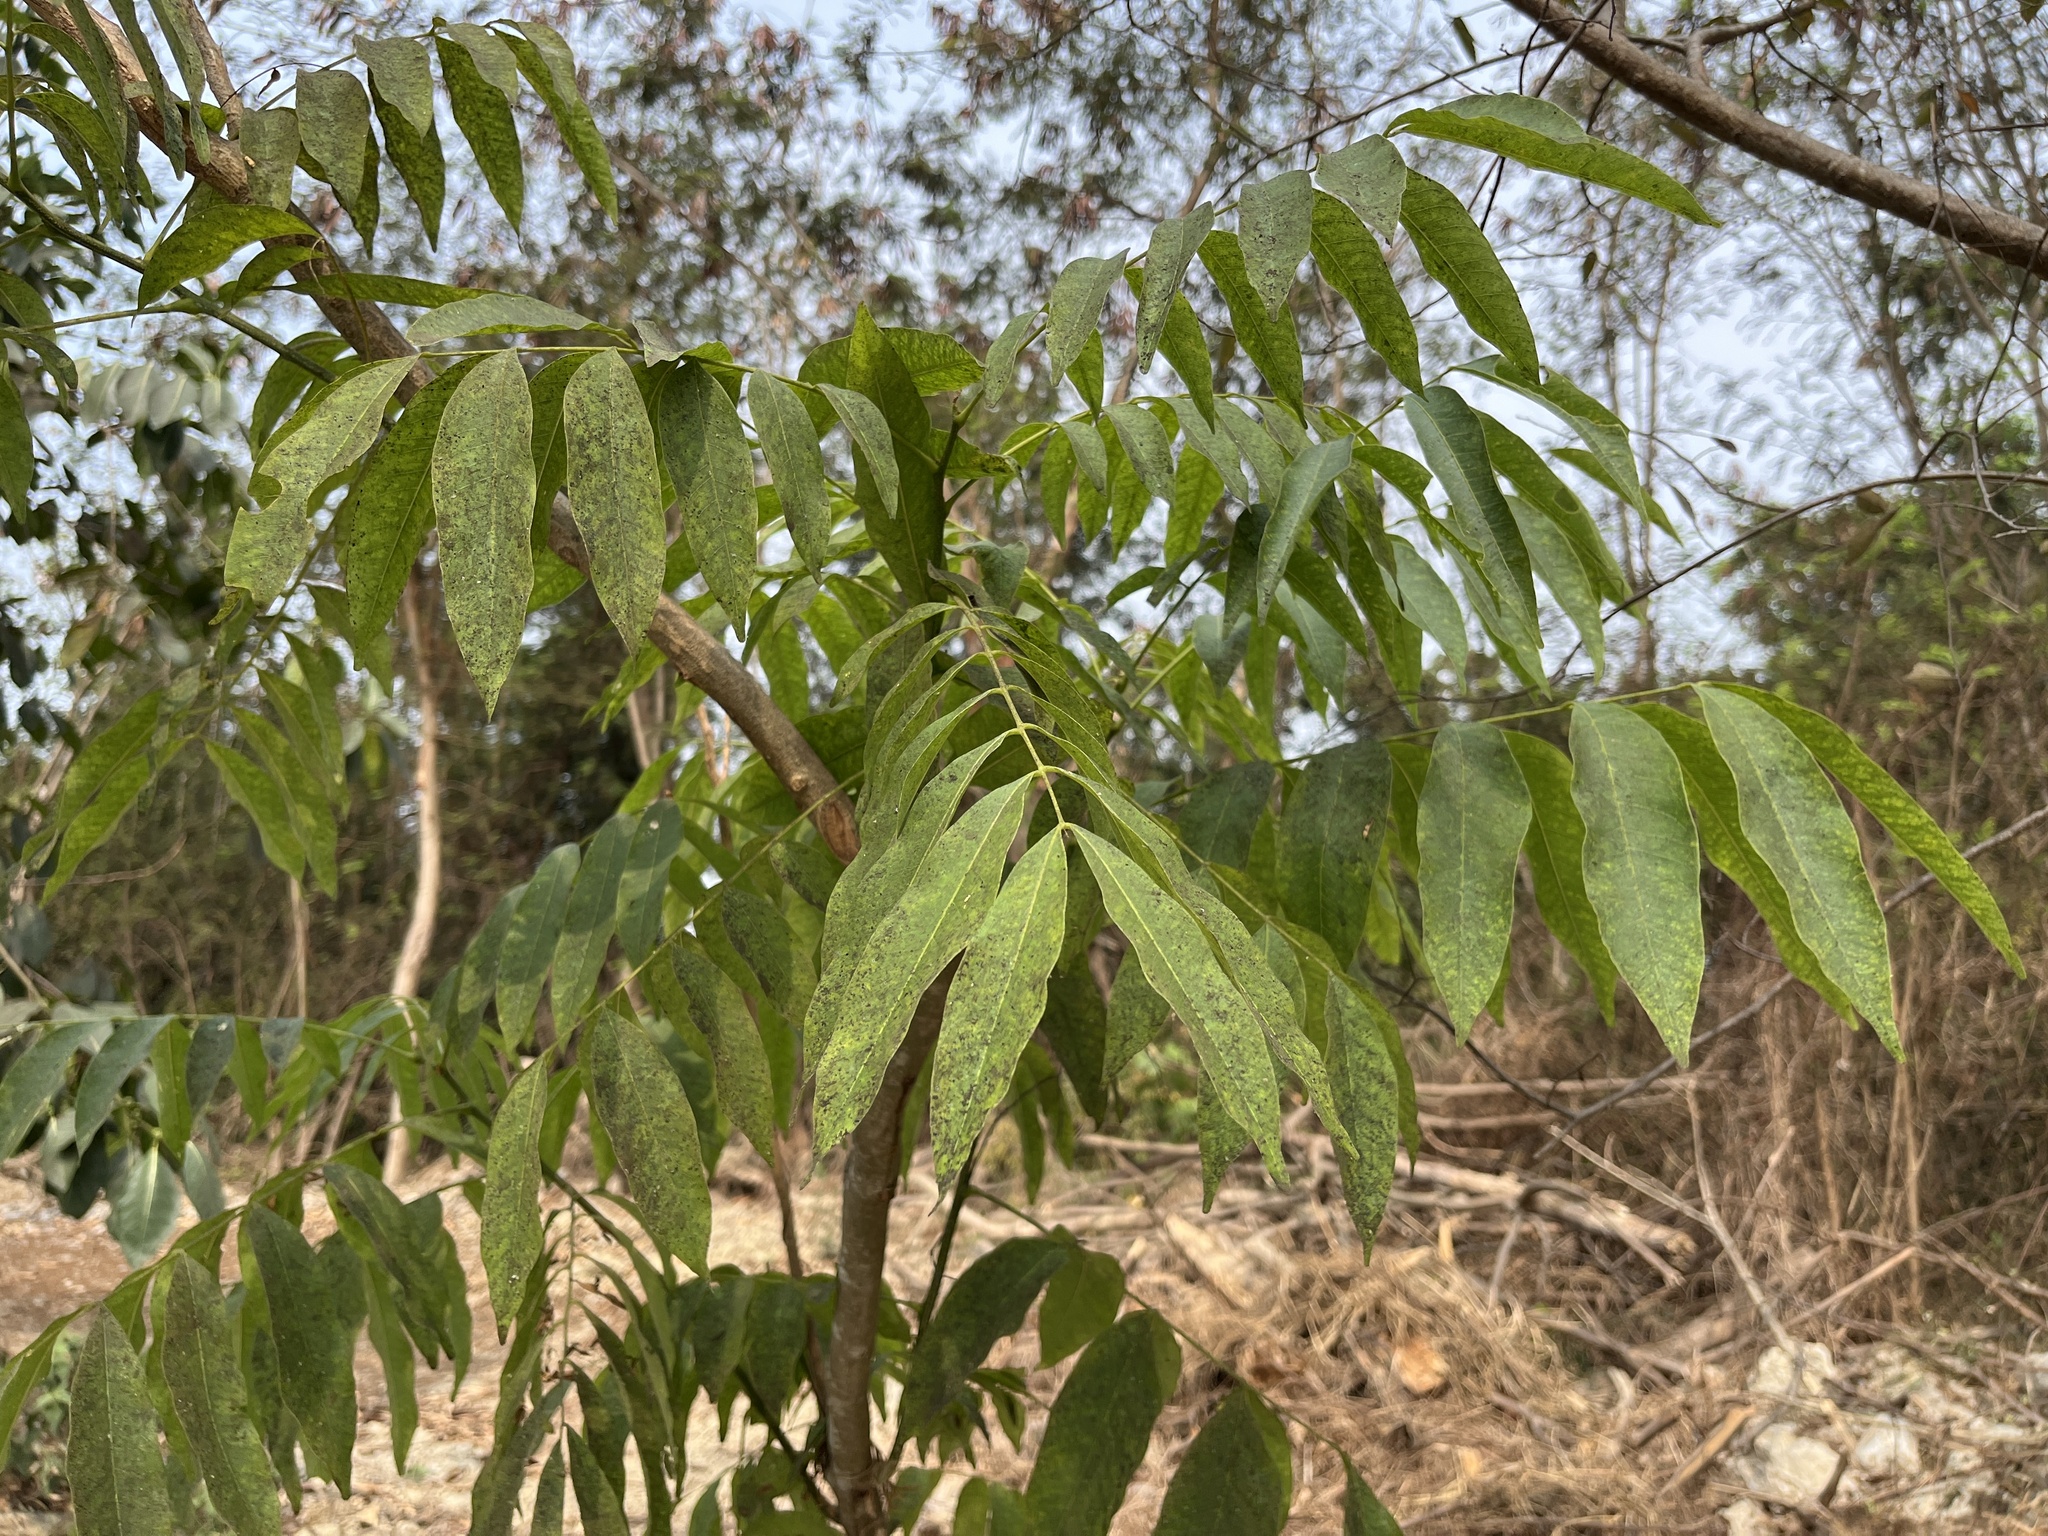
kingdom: Plantae
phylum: Tracheophyta
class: Magnoliopsida
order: Sapindales
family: Sapindaceae
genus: Sapindus
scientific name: Sapindus mukorossi
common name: Chinese soapberry
